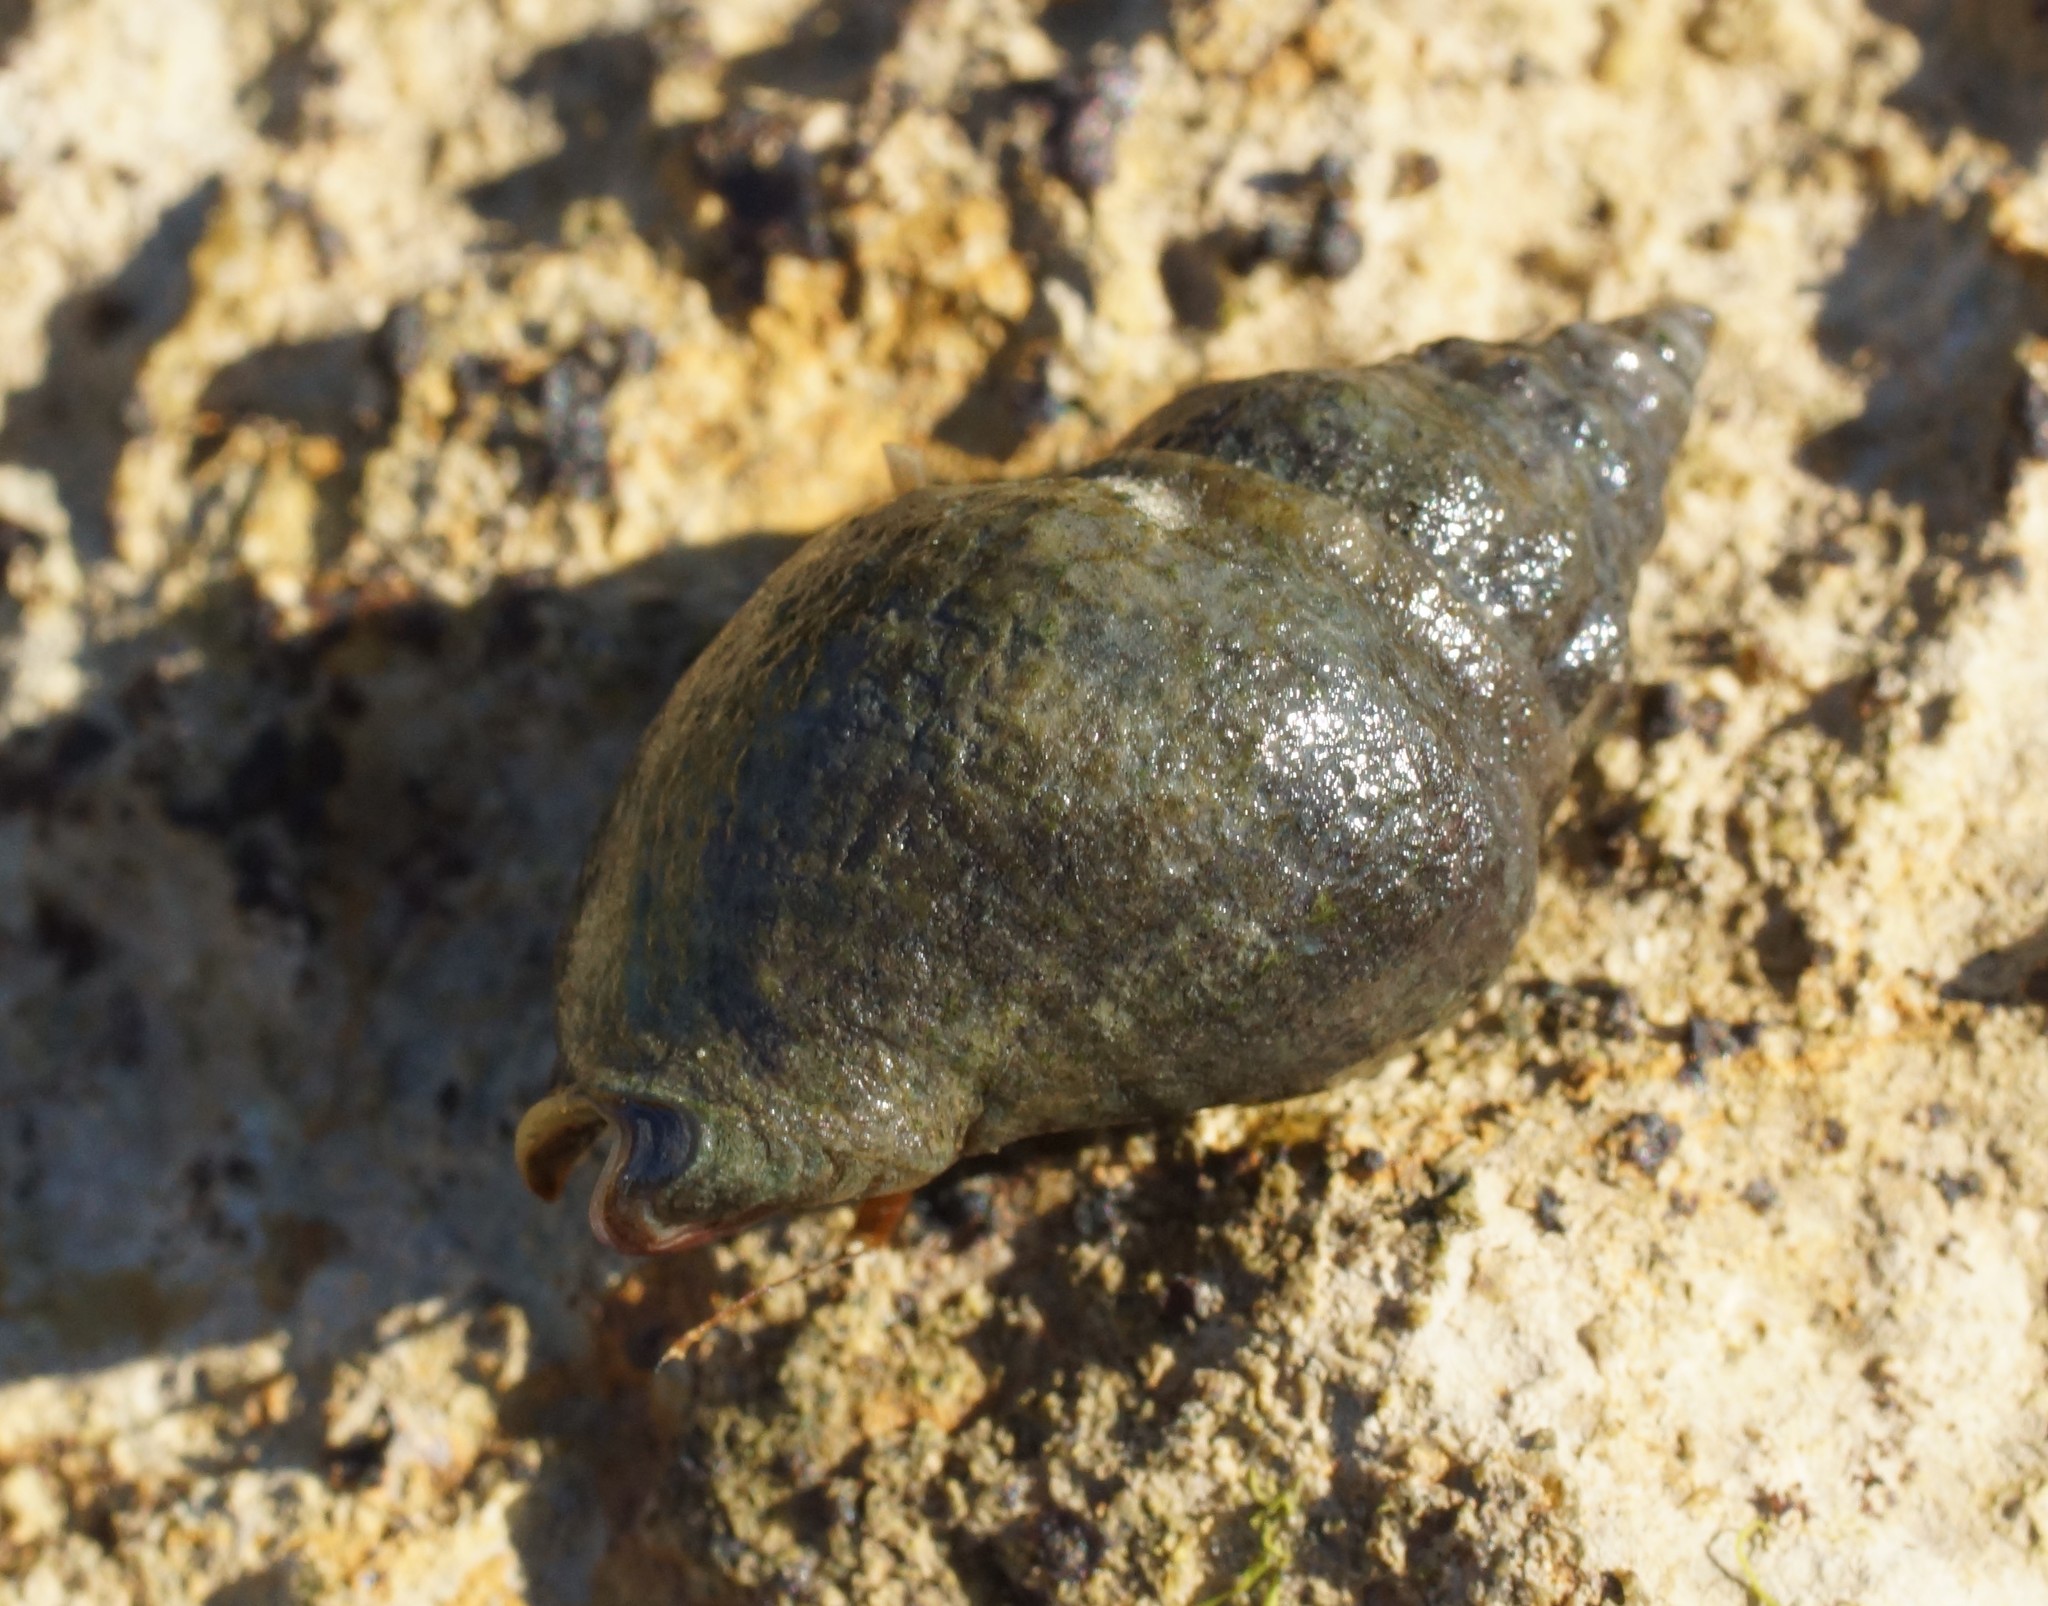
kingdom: Animalia
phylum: Mollusca
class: Gastropoda
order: Neogastropoda
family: Cominellidae
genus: Cominella
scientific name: Cominella lineolata
